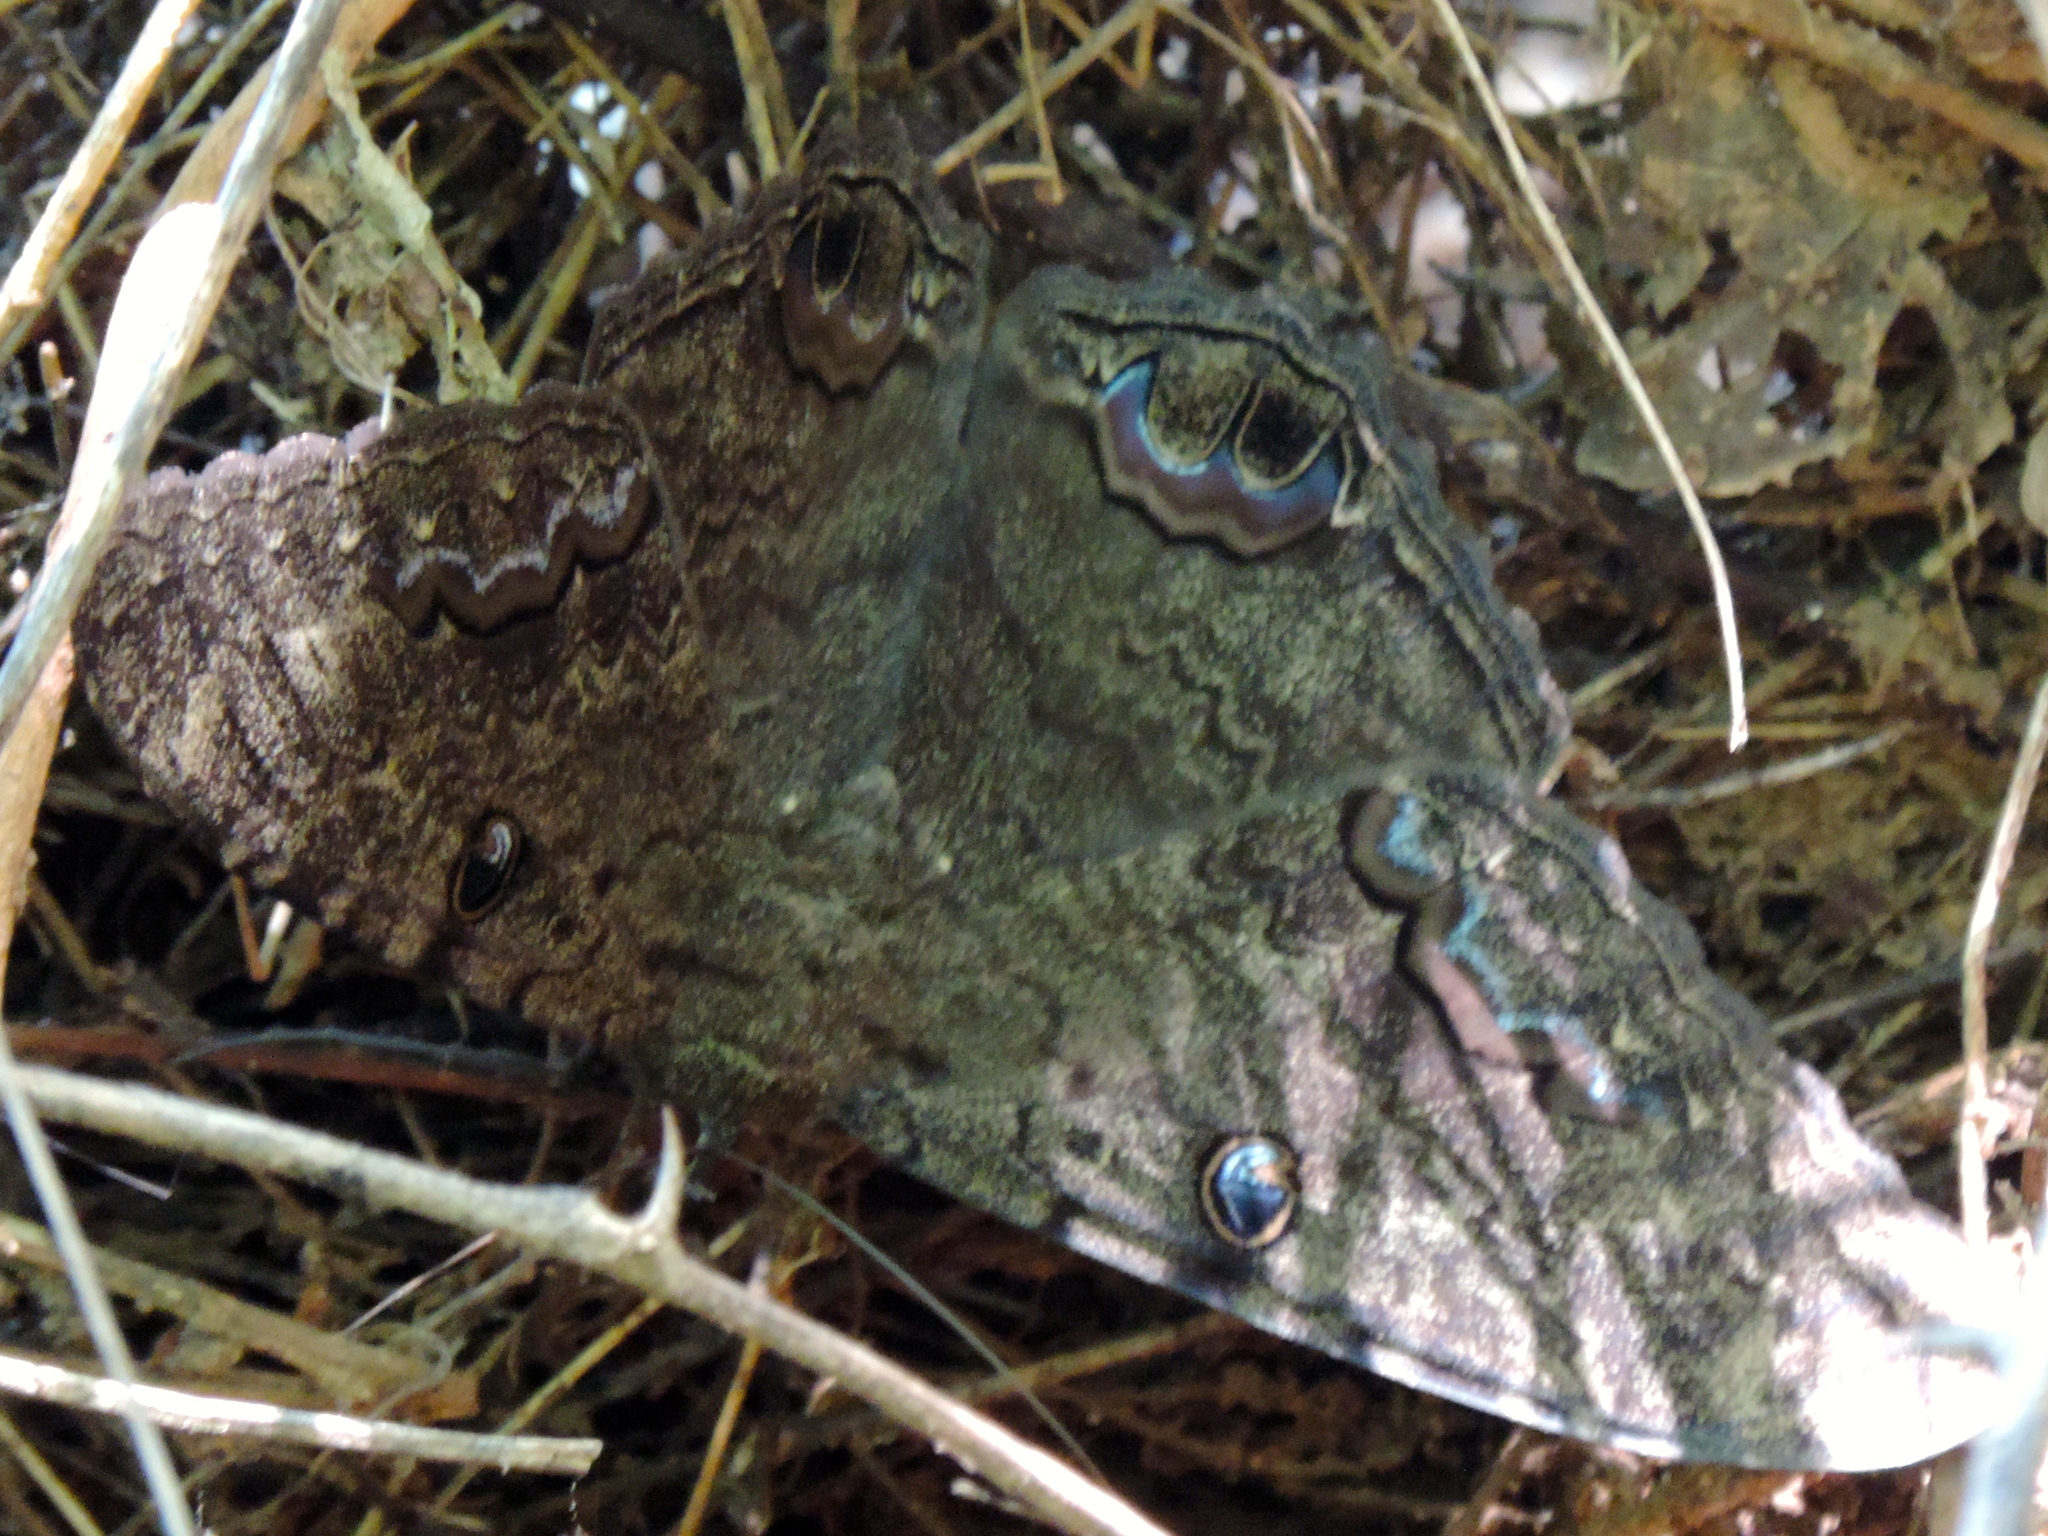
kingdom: Animalia
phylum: Arthropoda
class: Insecta
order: Lepidoptera
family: Erebidae
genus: Ascalapha
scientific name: Ascalapha odorata
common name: Black witch
